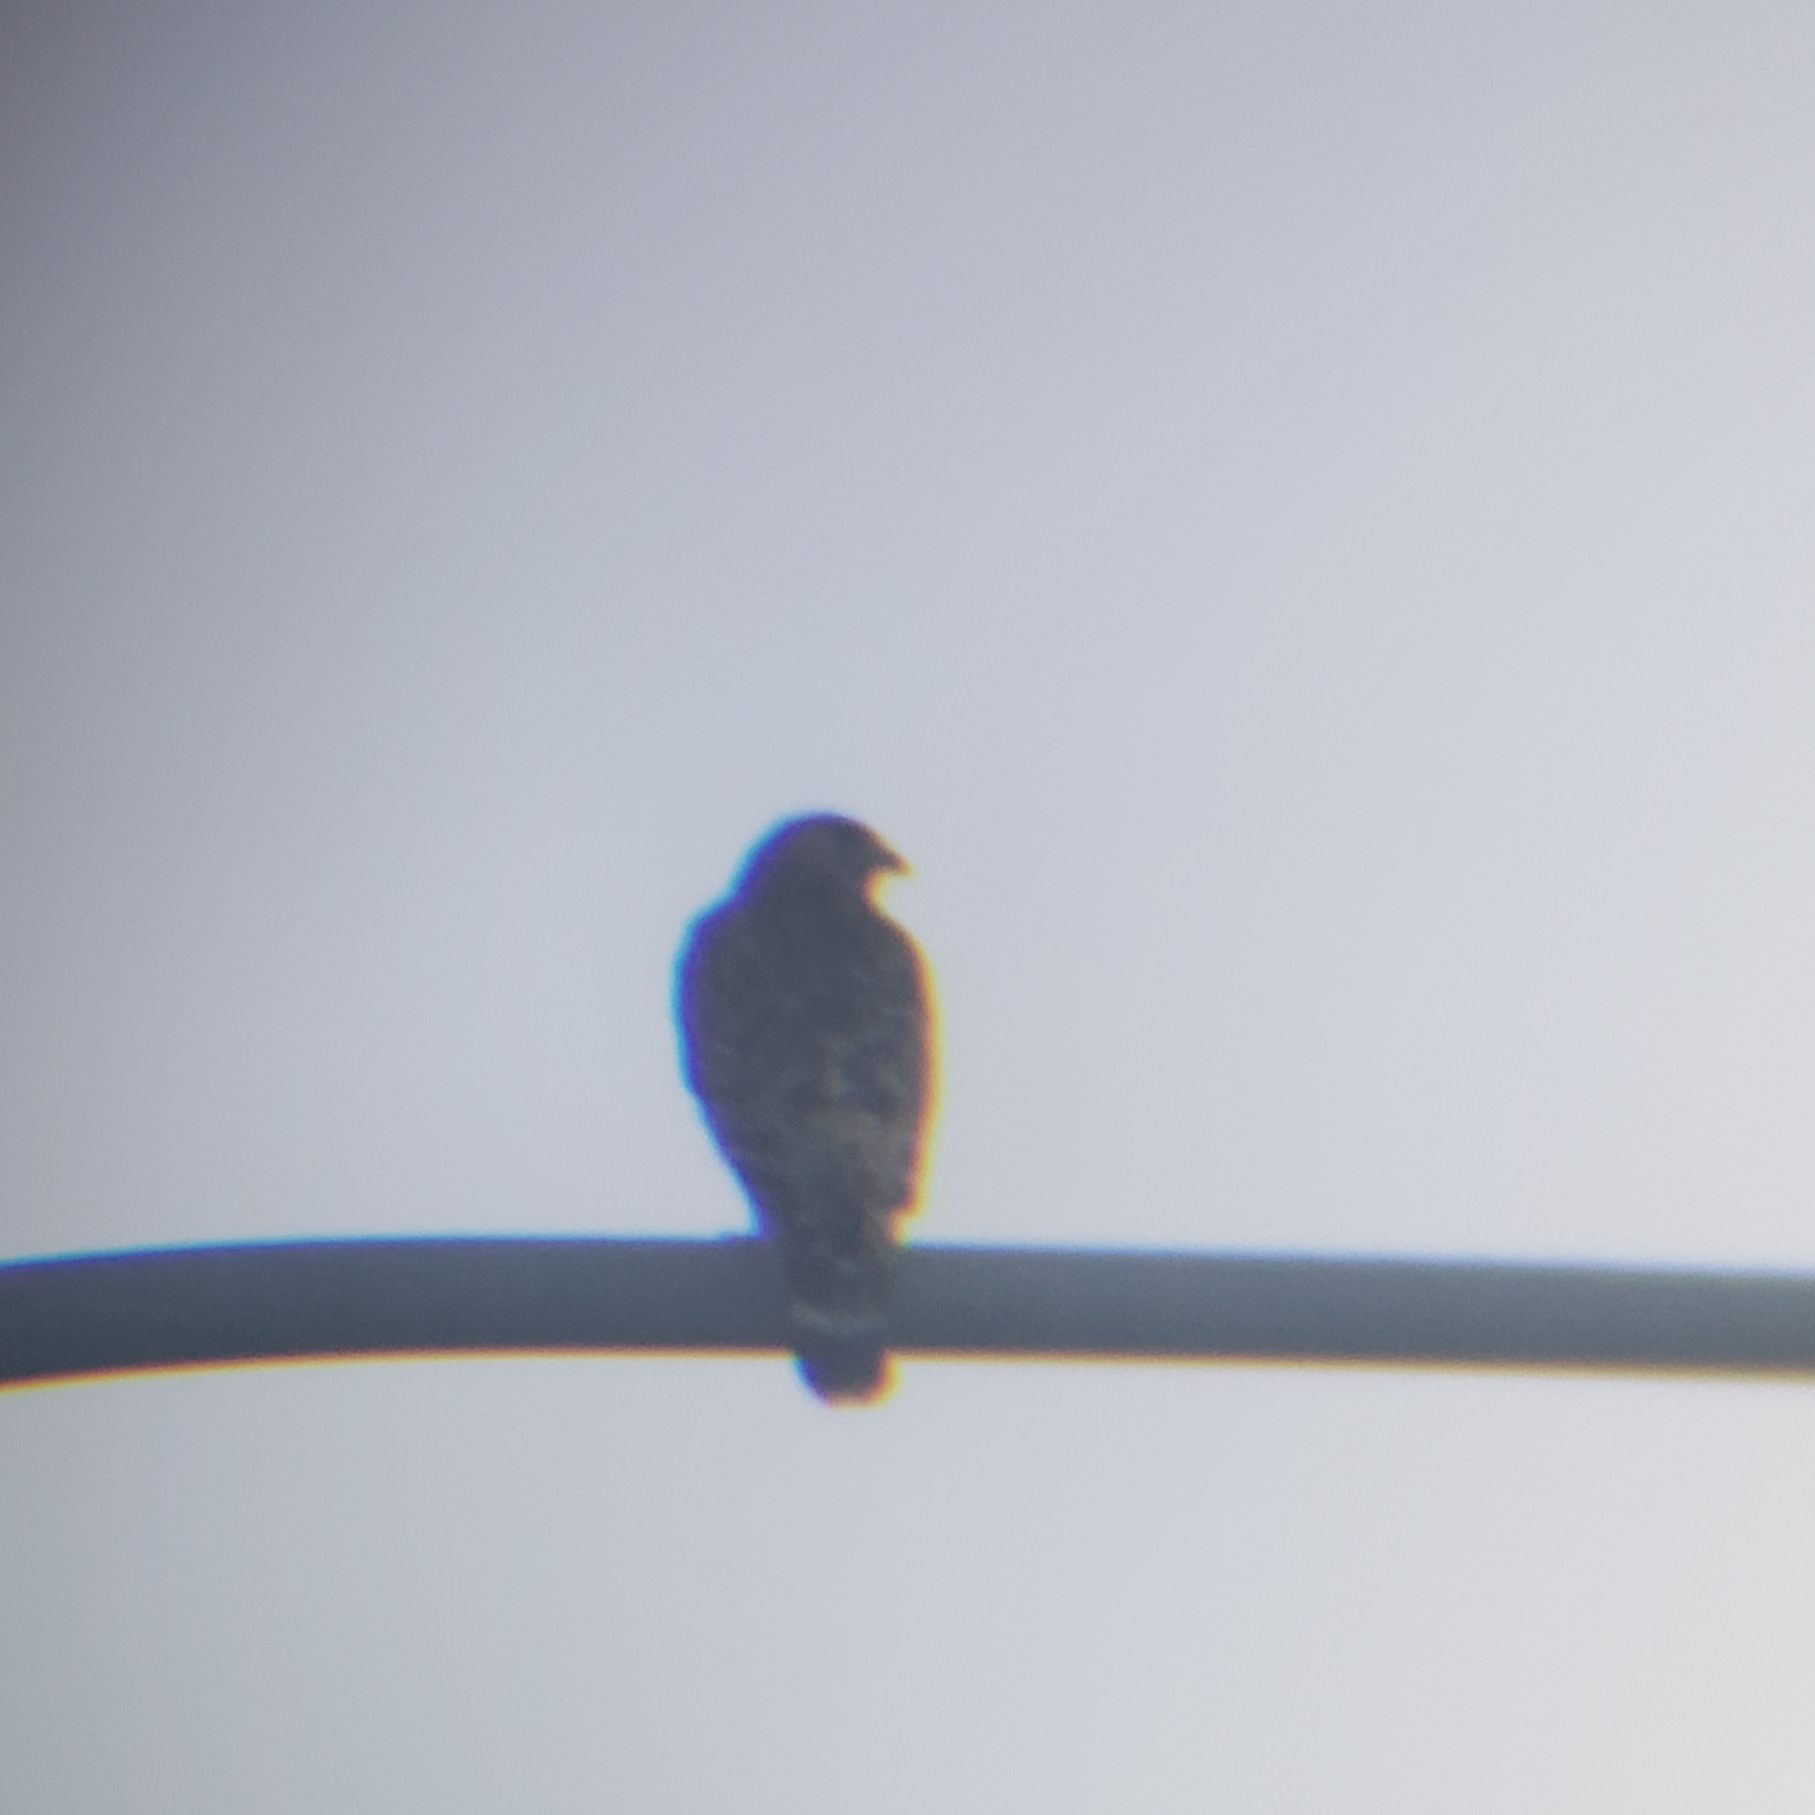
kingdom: Animalia
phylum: Chordata
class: Aves
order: Accipitriformes
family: Accipitridae
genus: Buteo
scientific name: Buteo lineatus
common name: Red-shouldered hawk
